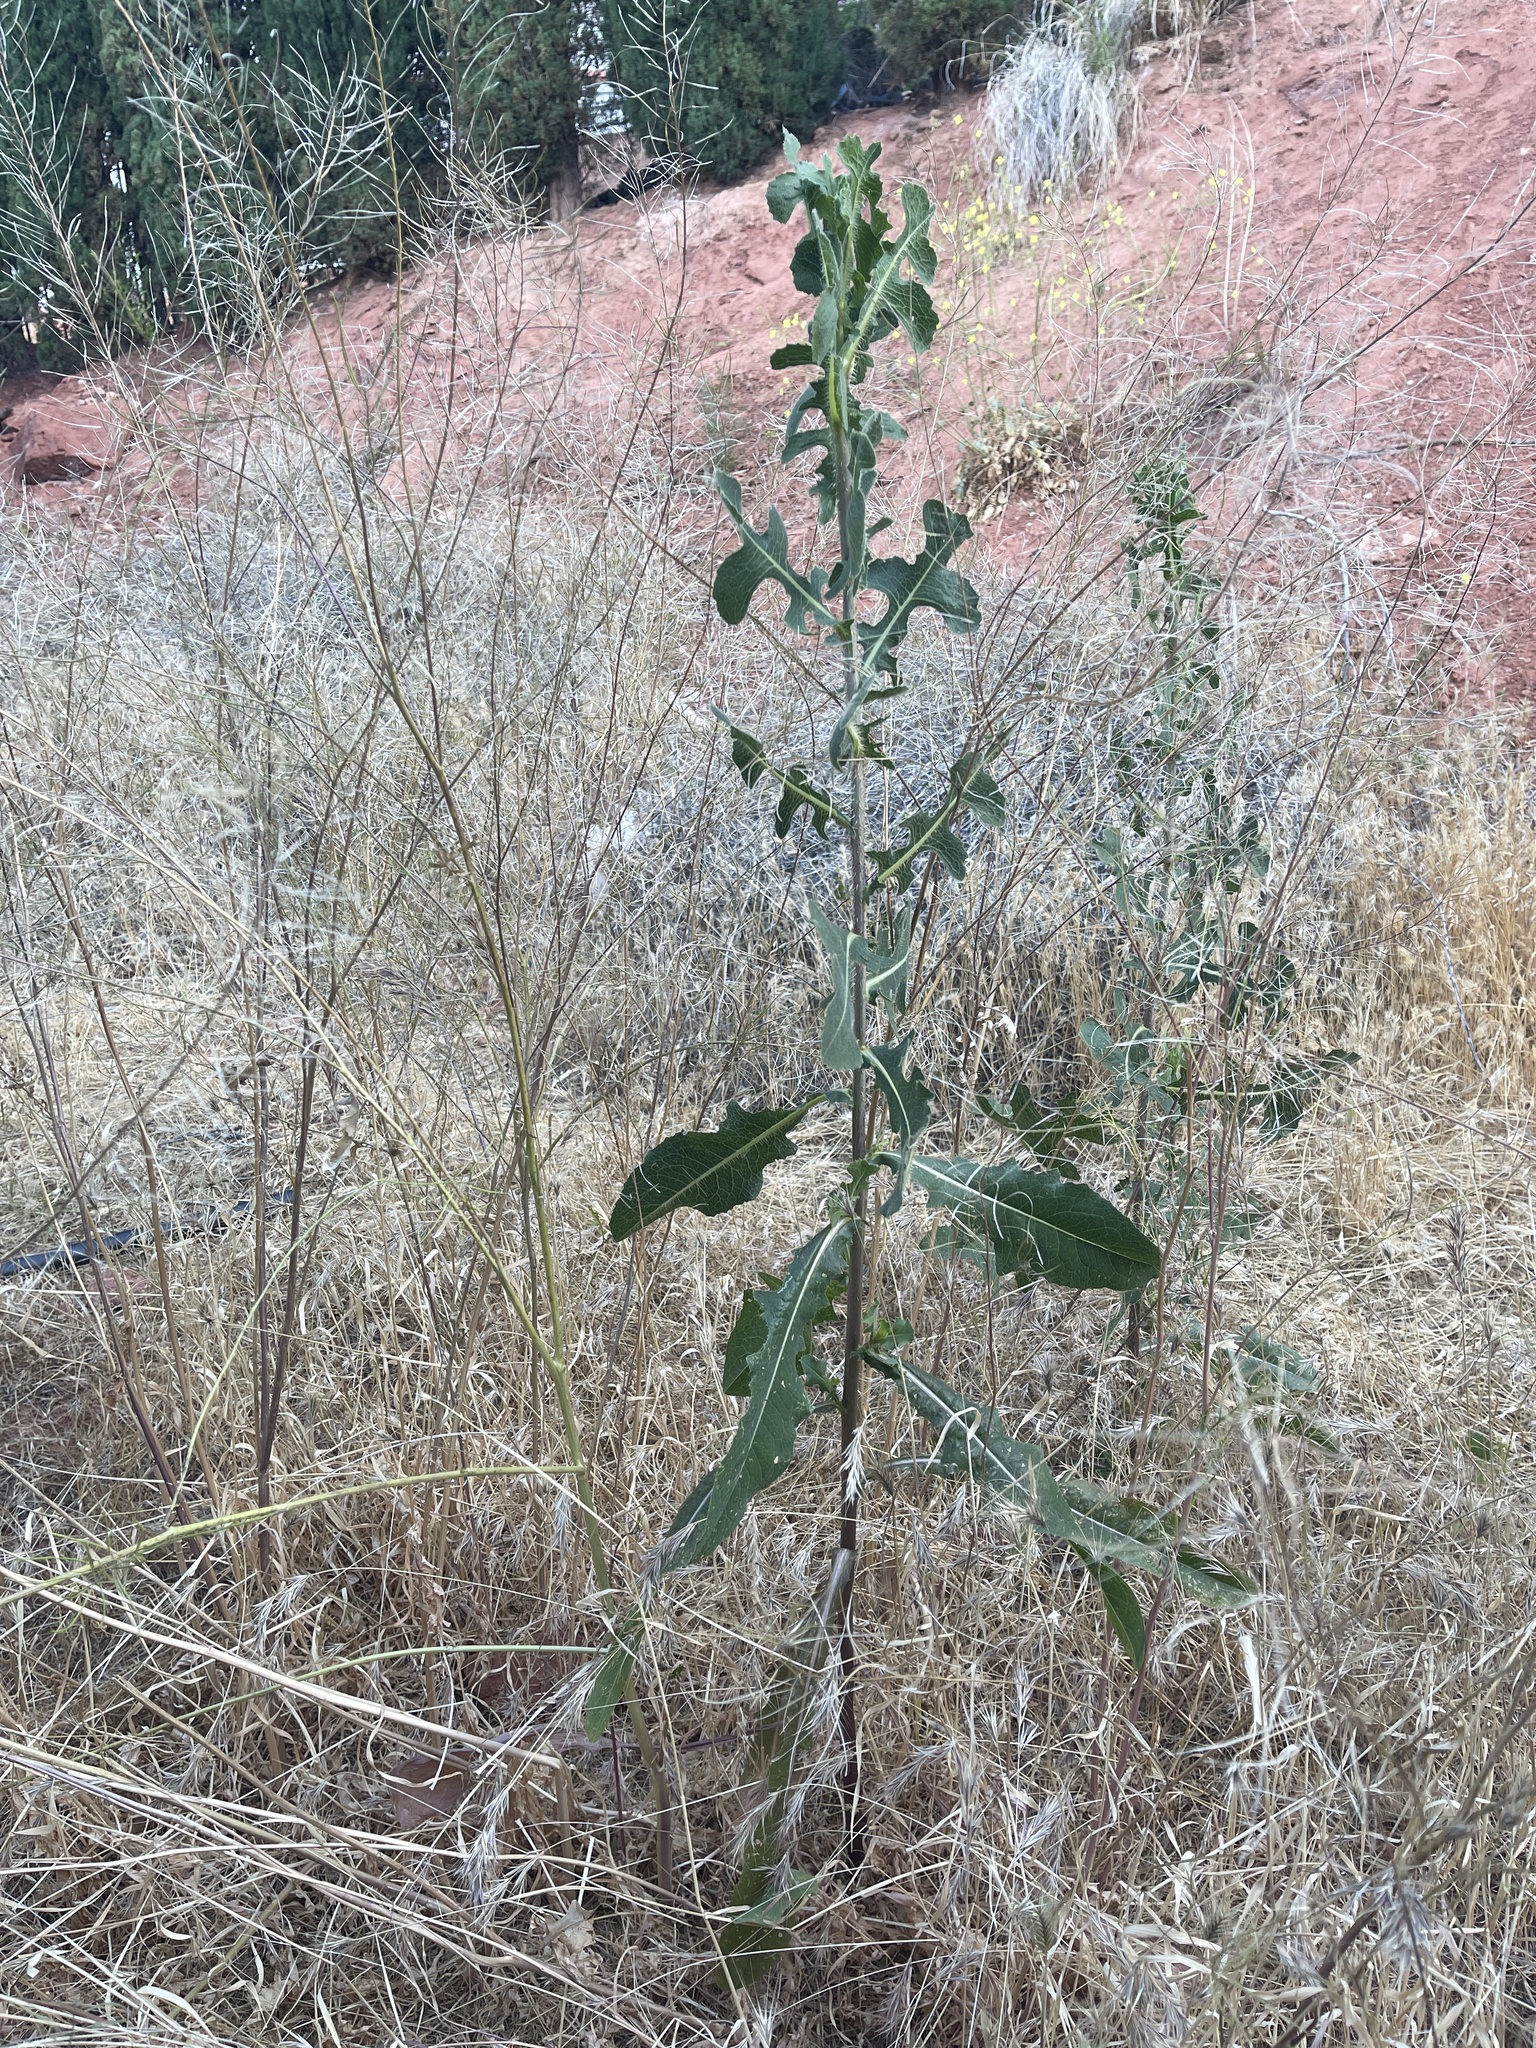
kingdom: Plantae
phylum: Tracheophyta
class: Magnoliopsida
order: Asterales
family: Asteraceae
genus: Lactuca
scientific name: Lactuca serriola
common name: Prickly lettuce
